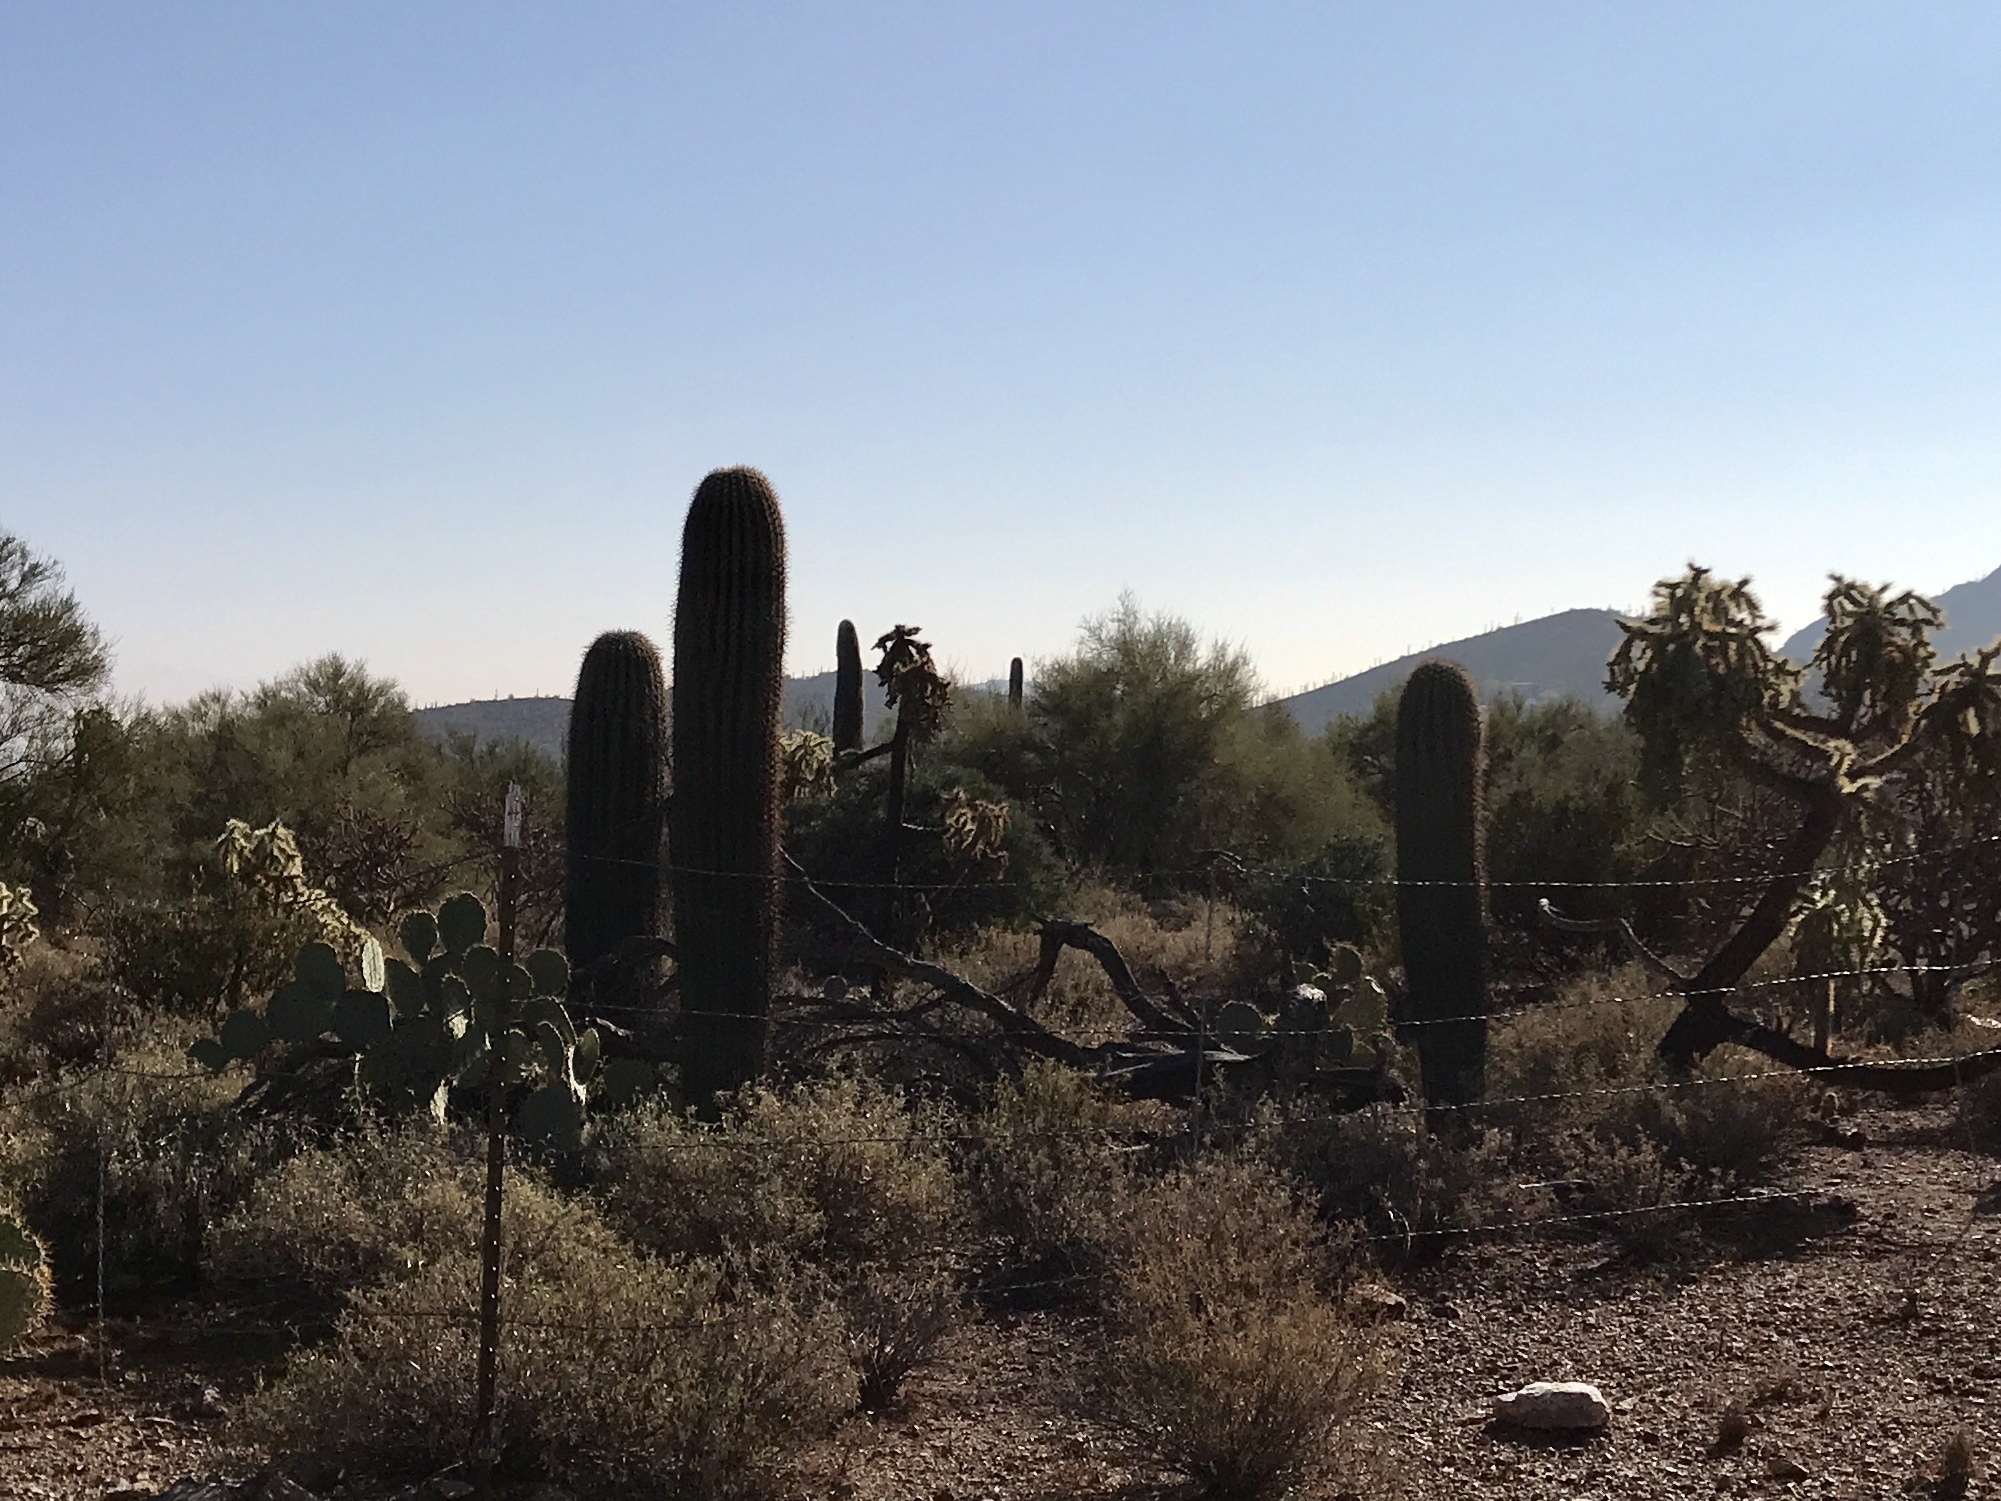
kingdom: Plantae
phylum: Tracheophyta
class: Magnoliopsida
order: Caryophyllales
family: Cactaceae
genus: Carnegiea
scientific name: Carnegiea gigantea
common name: Saguaro
